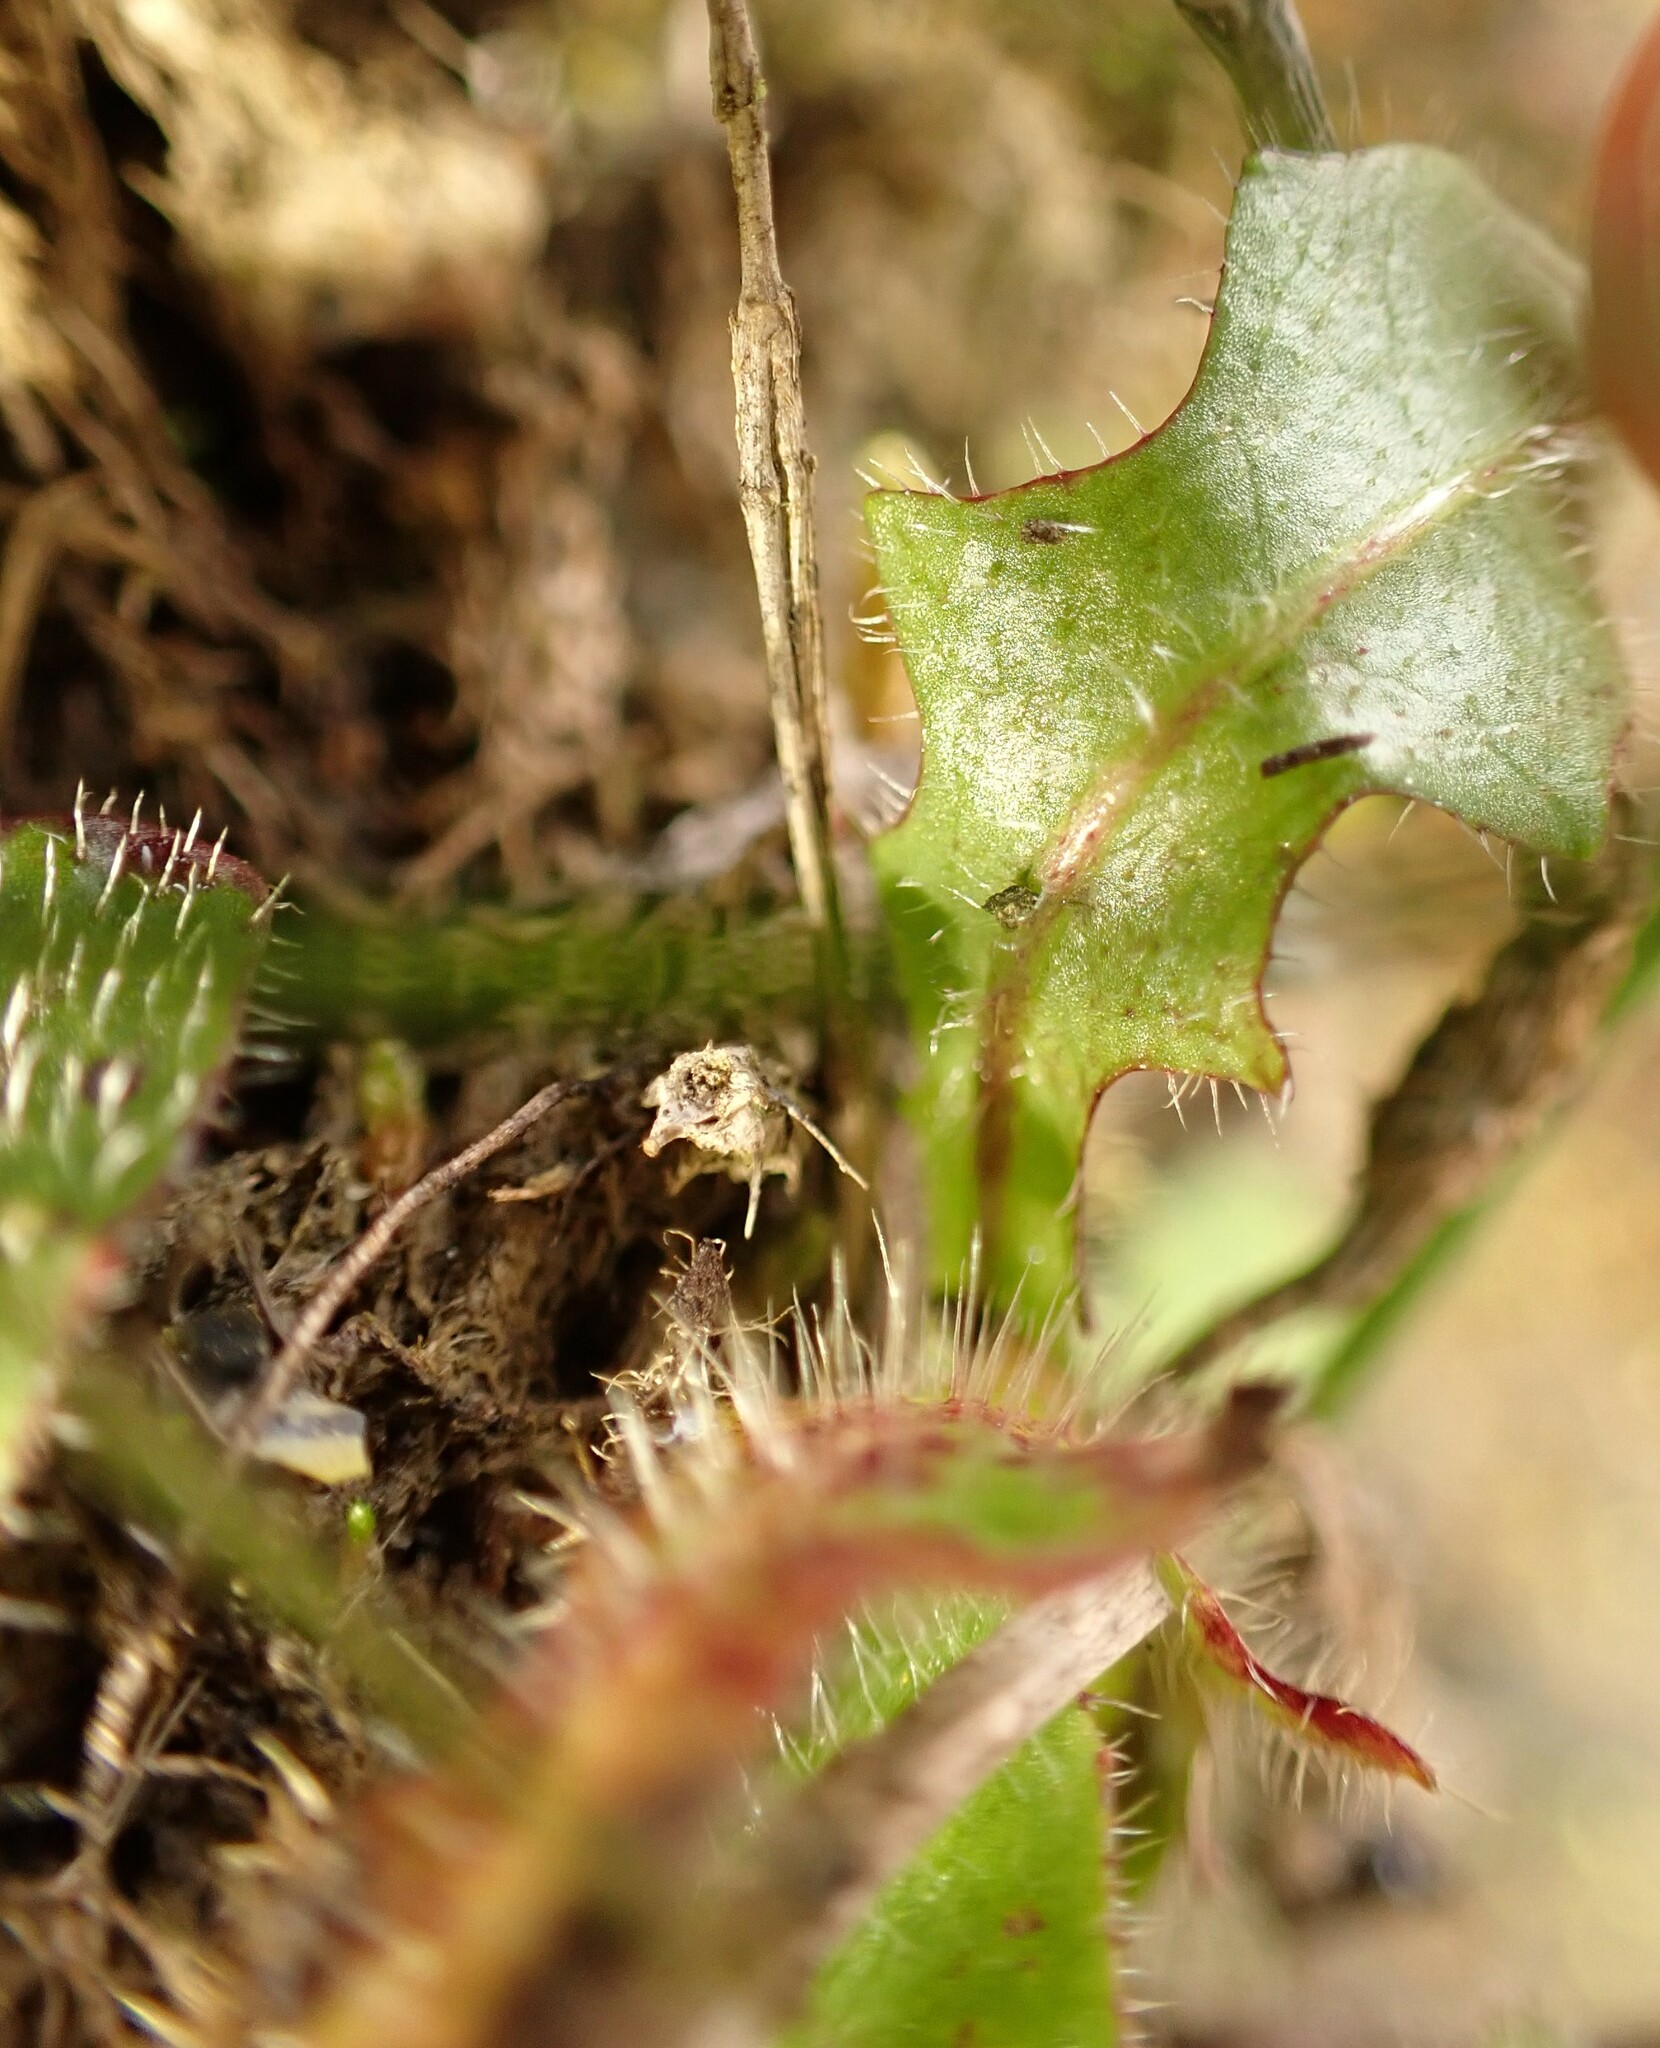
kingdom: Plantae
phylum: Tracheophyta
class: Magnoliopsida
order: Asterales
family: Asteraceae
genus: Hypochaeris
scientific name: Hypochaeris radicata
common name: Flatweed
